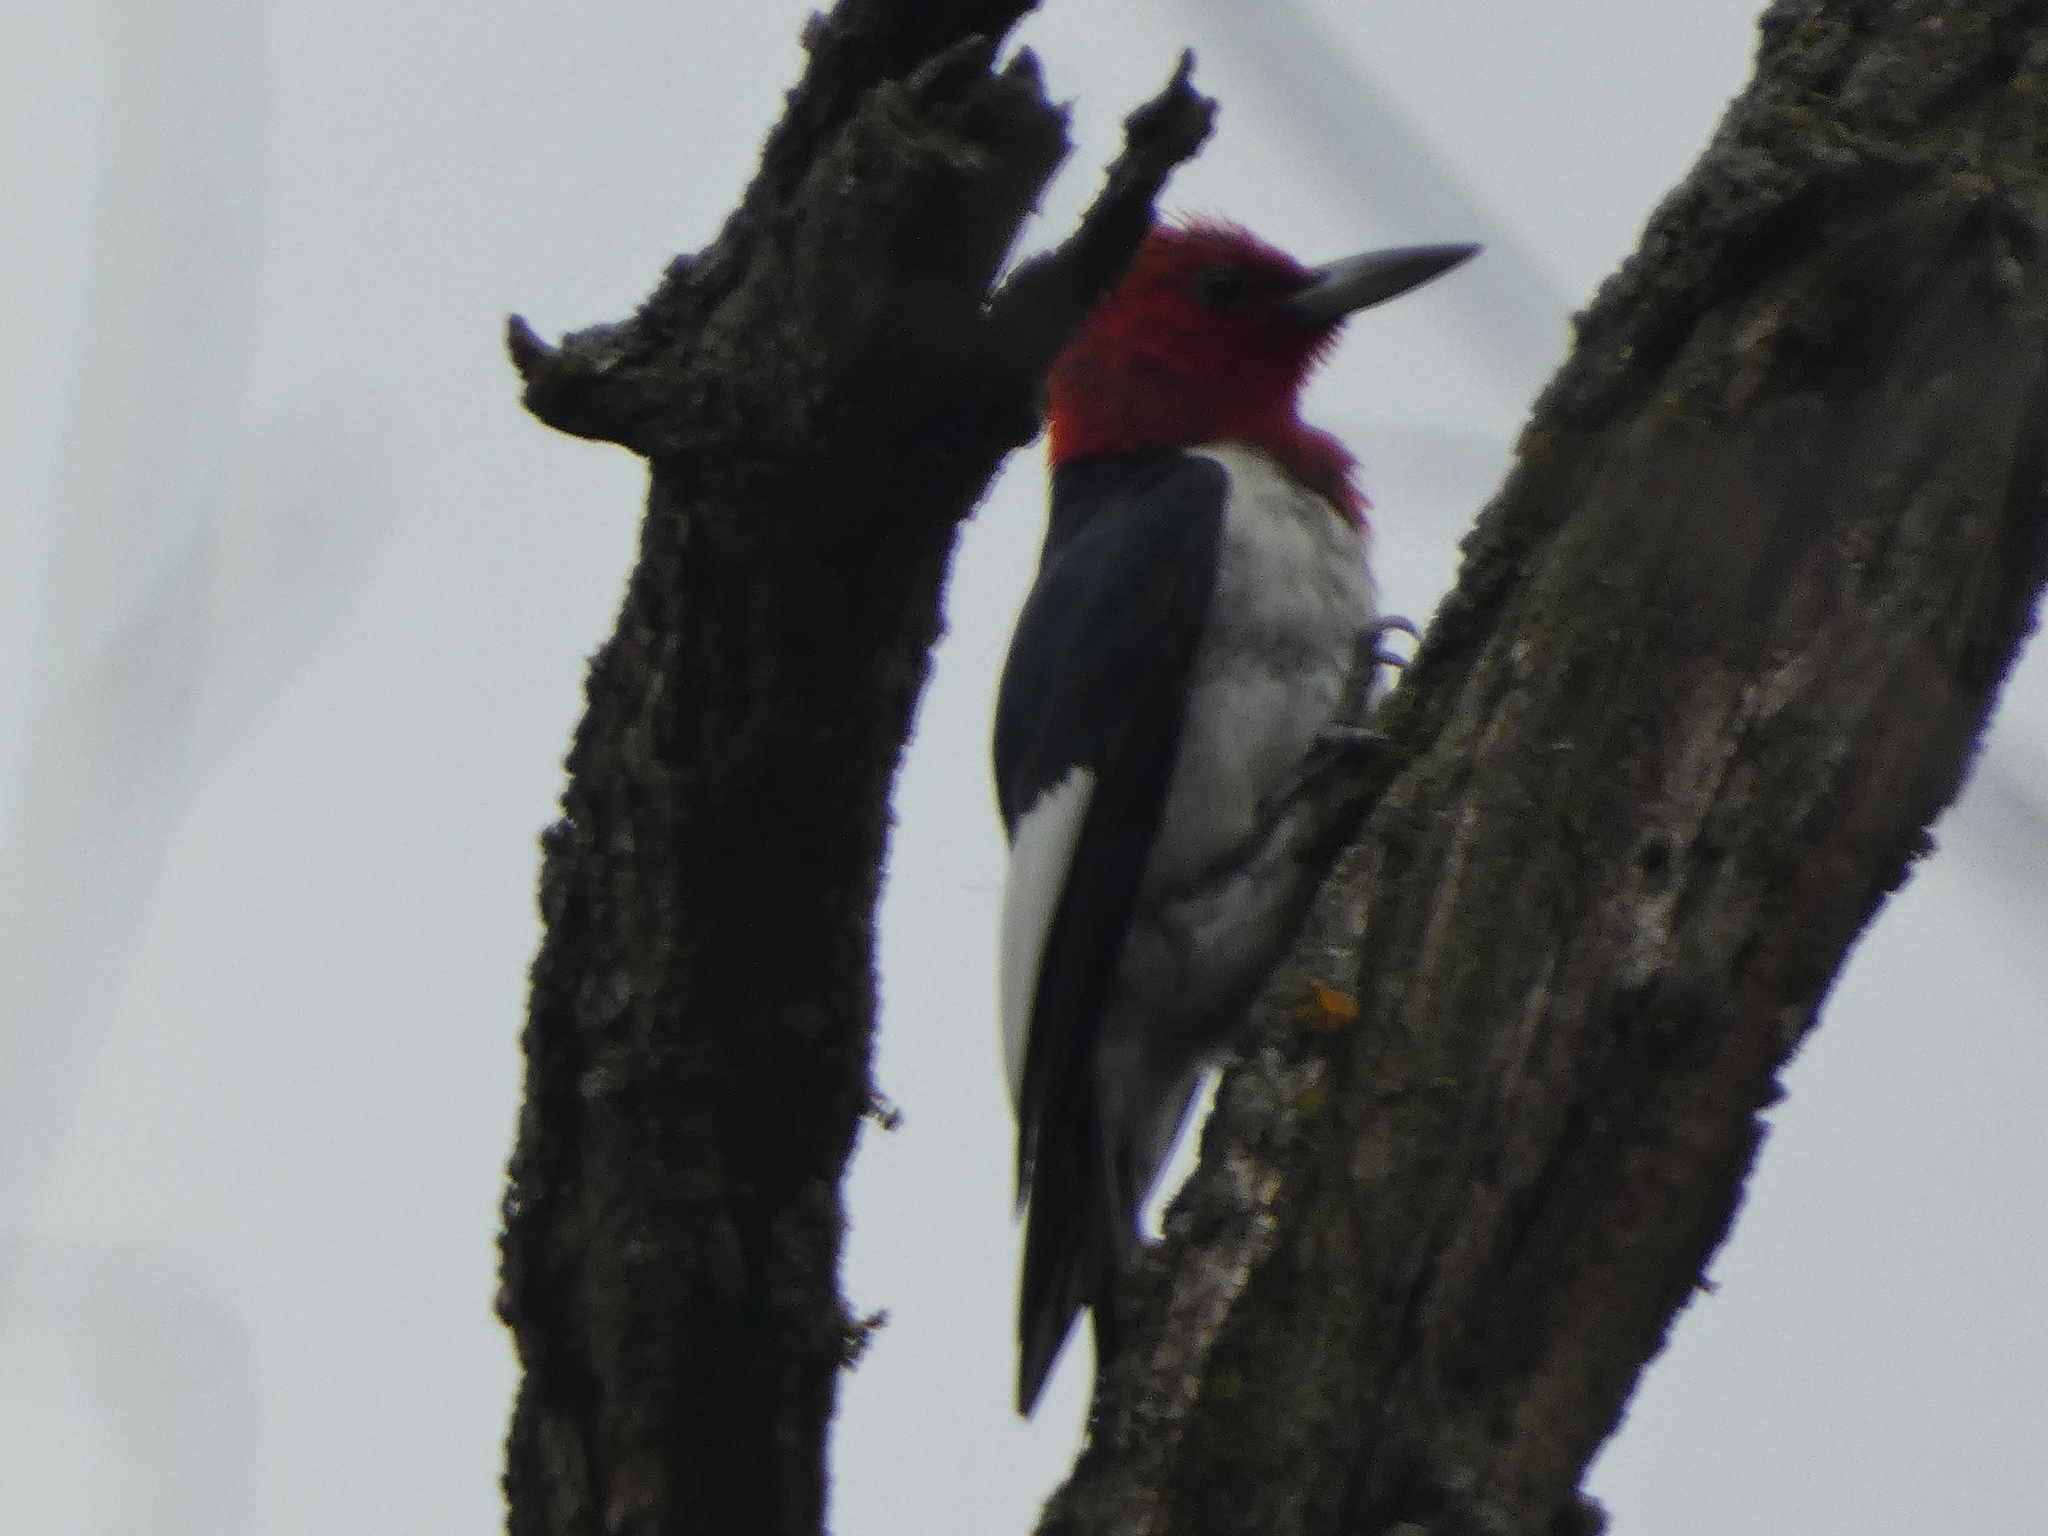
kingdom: Animalia
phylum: Chordata
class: Aves
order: Piciformes
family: Picidae
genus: Melanerpes
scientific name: Melanerpes erythrocephalus
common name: Red-headed woodpecker
